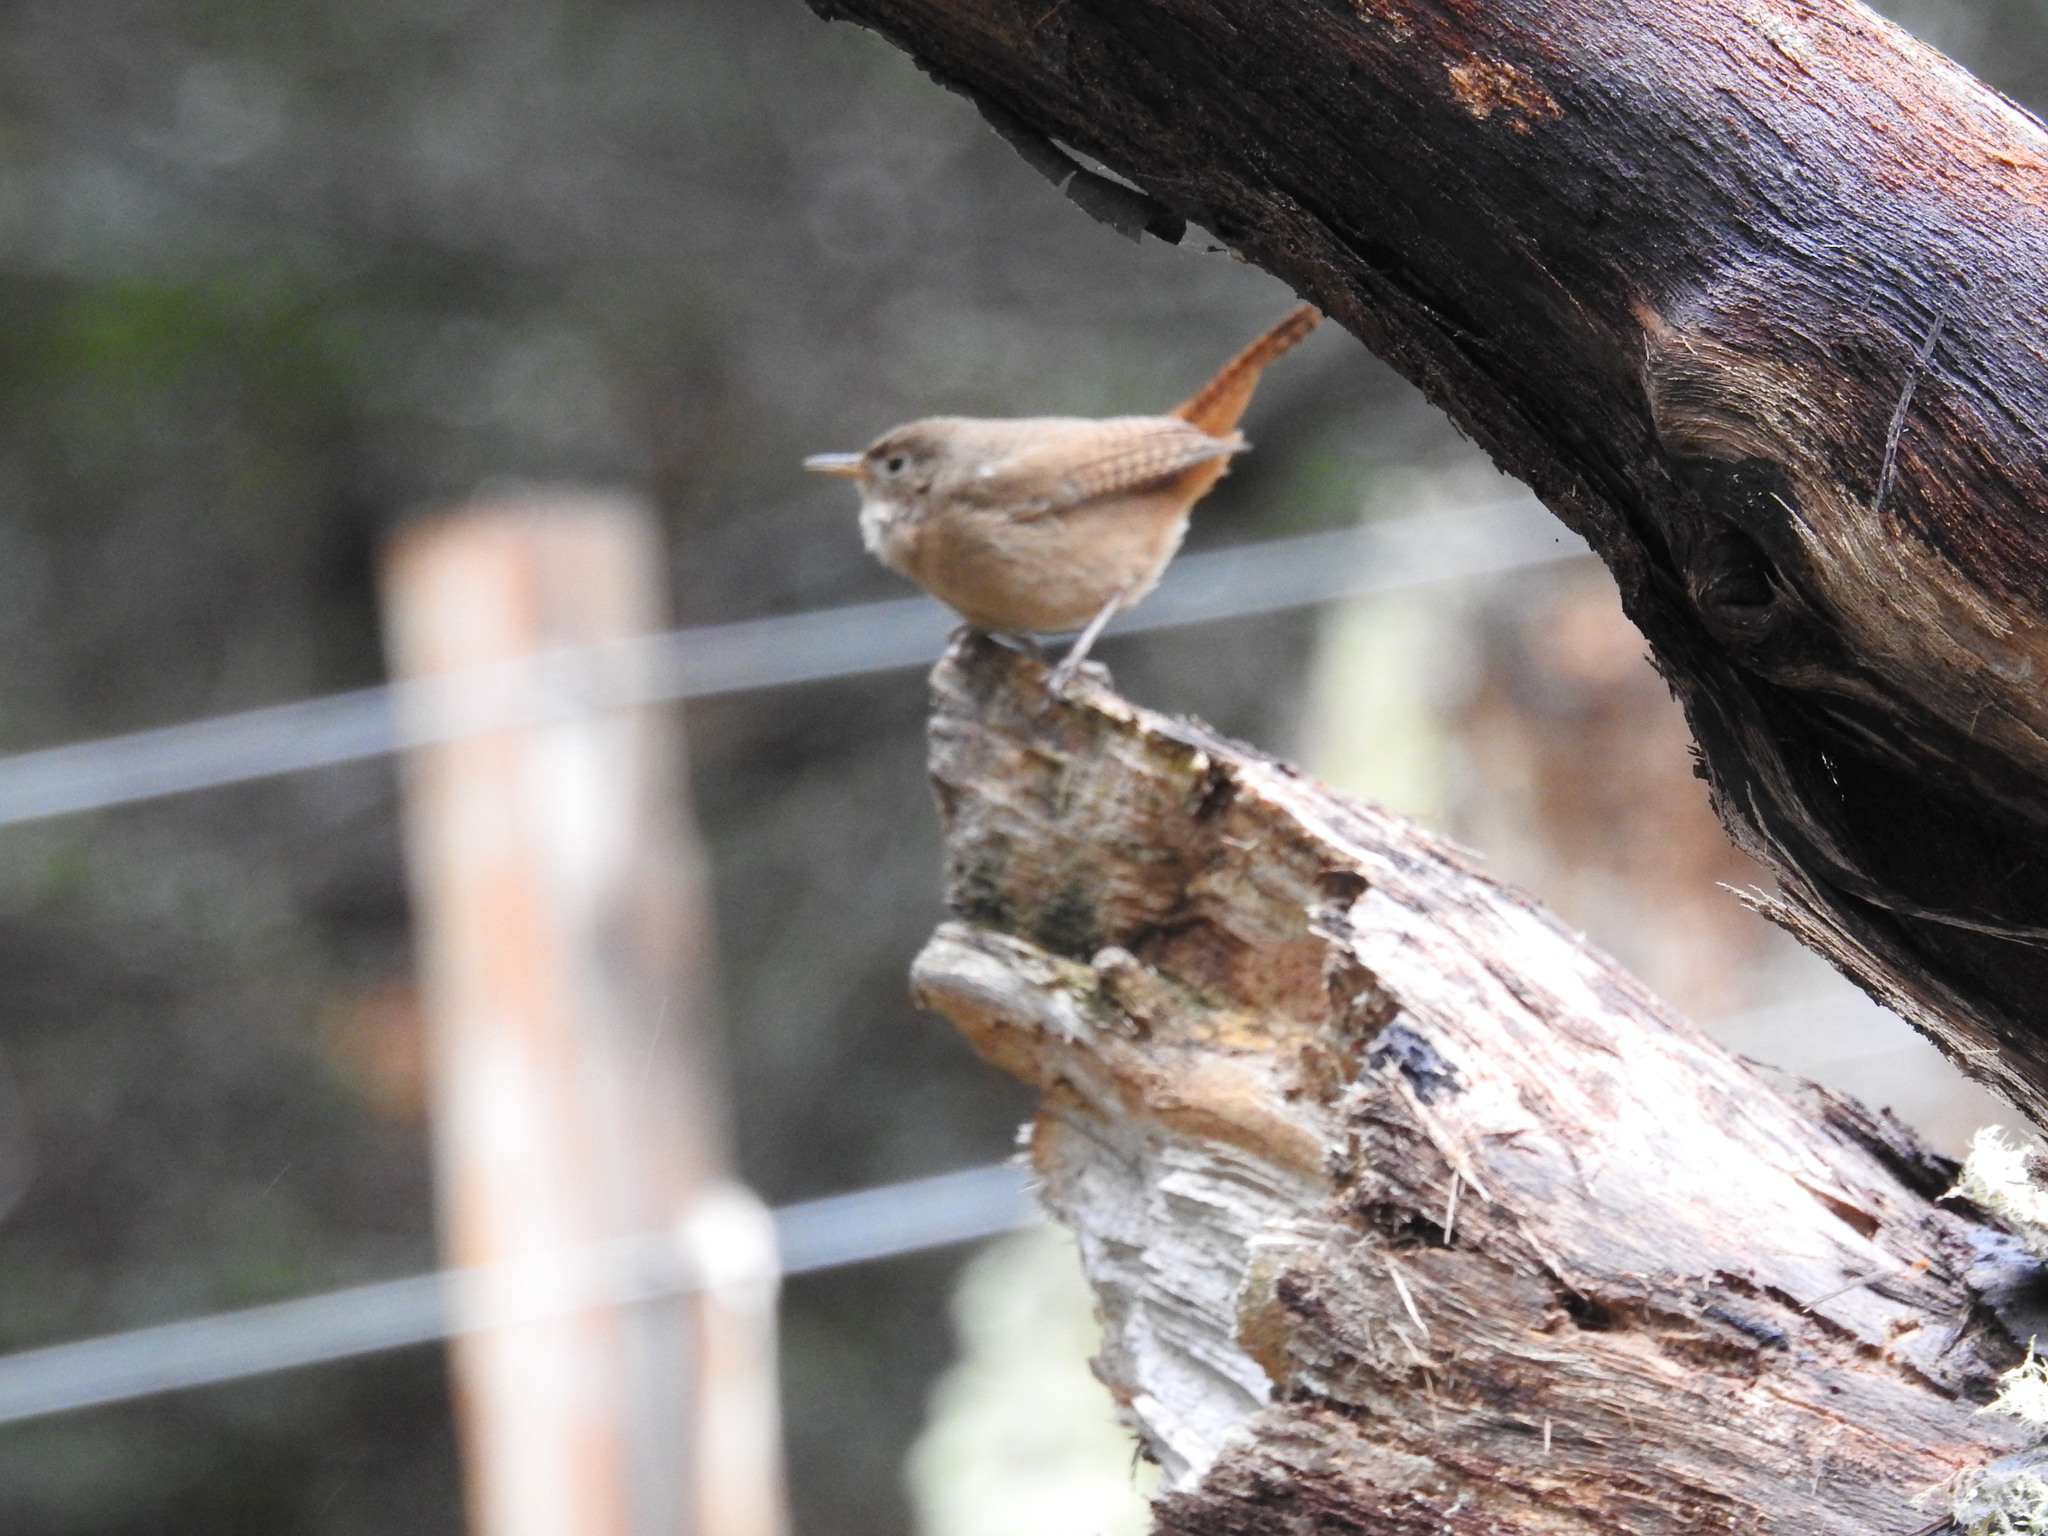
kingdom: Animalia
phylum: Chordata
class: Aves
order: Passeriformes
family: Troglodytidae
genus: Troglodytes
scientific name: Troglodytes aedon
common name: House wren
